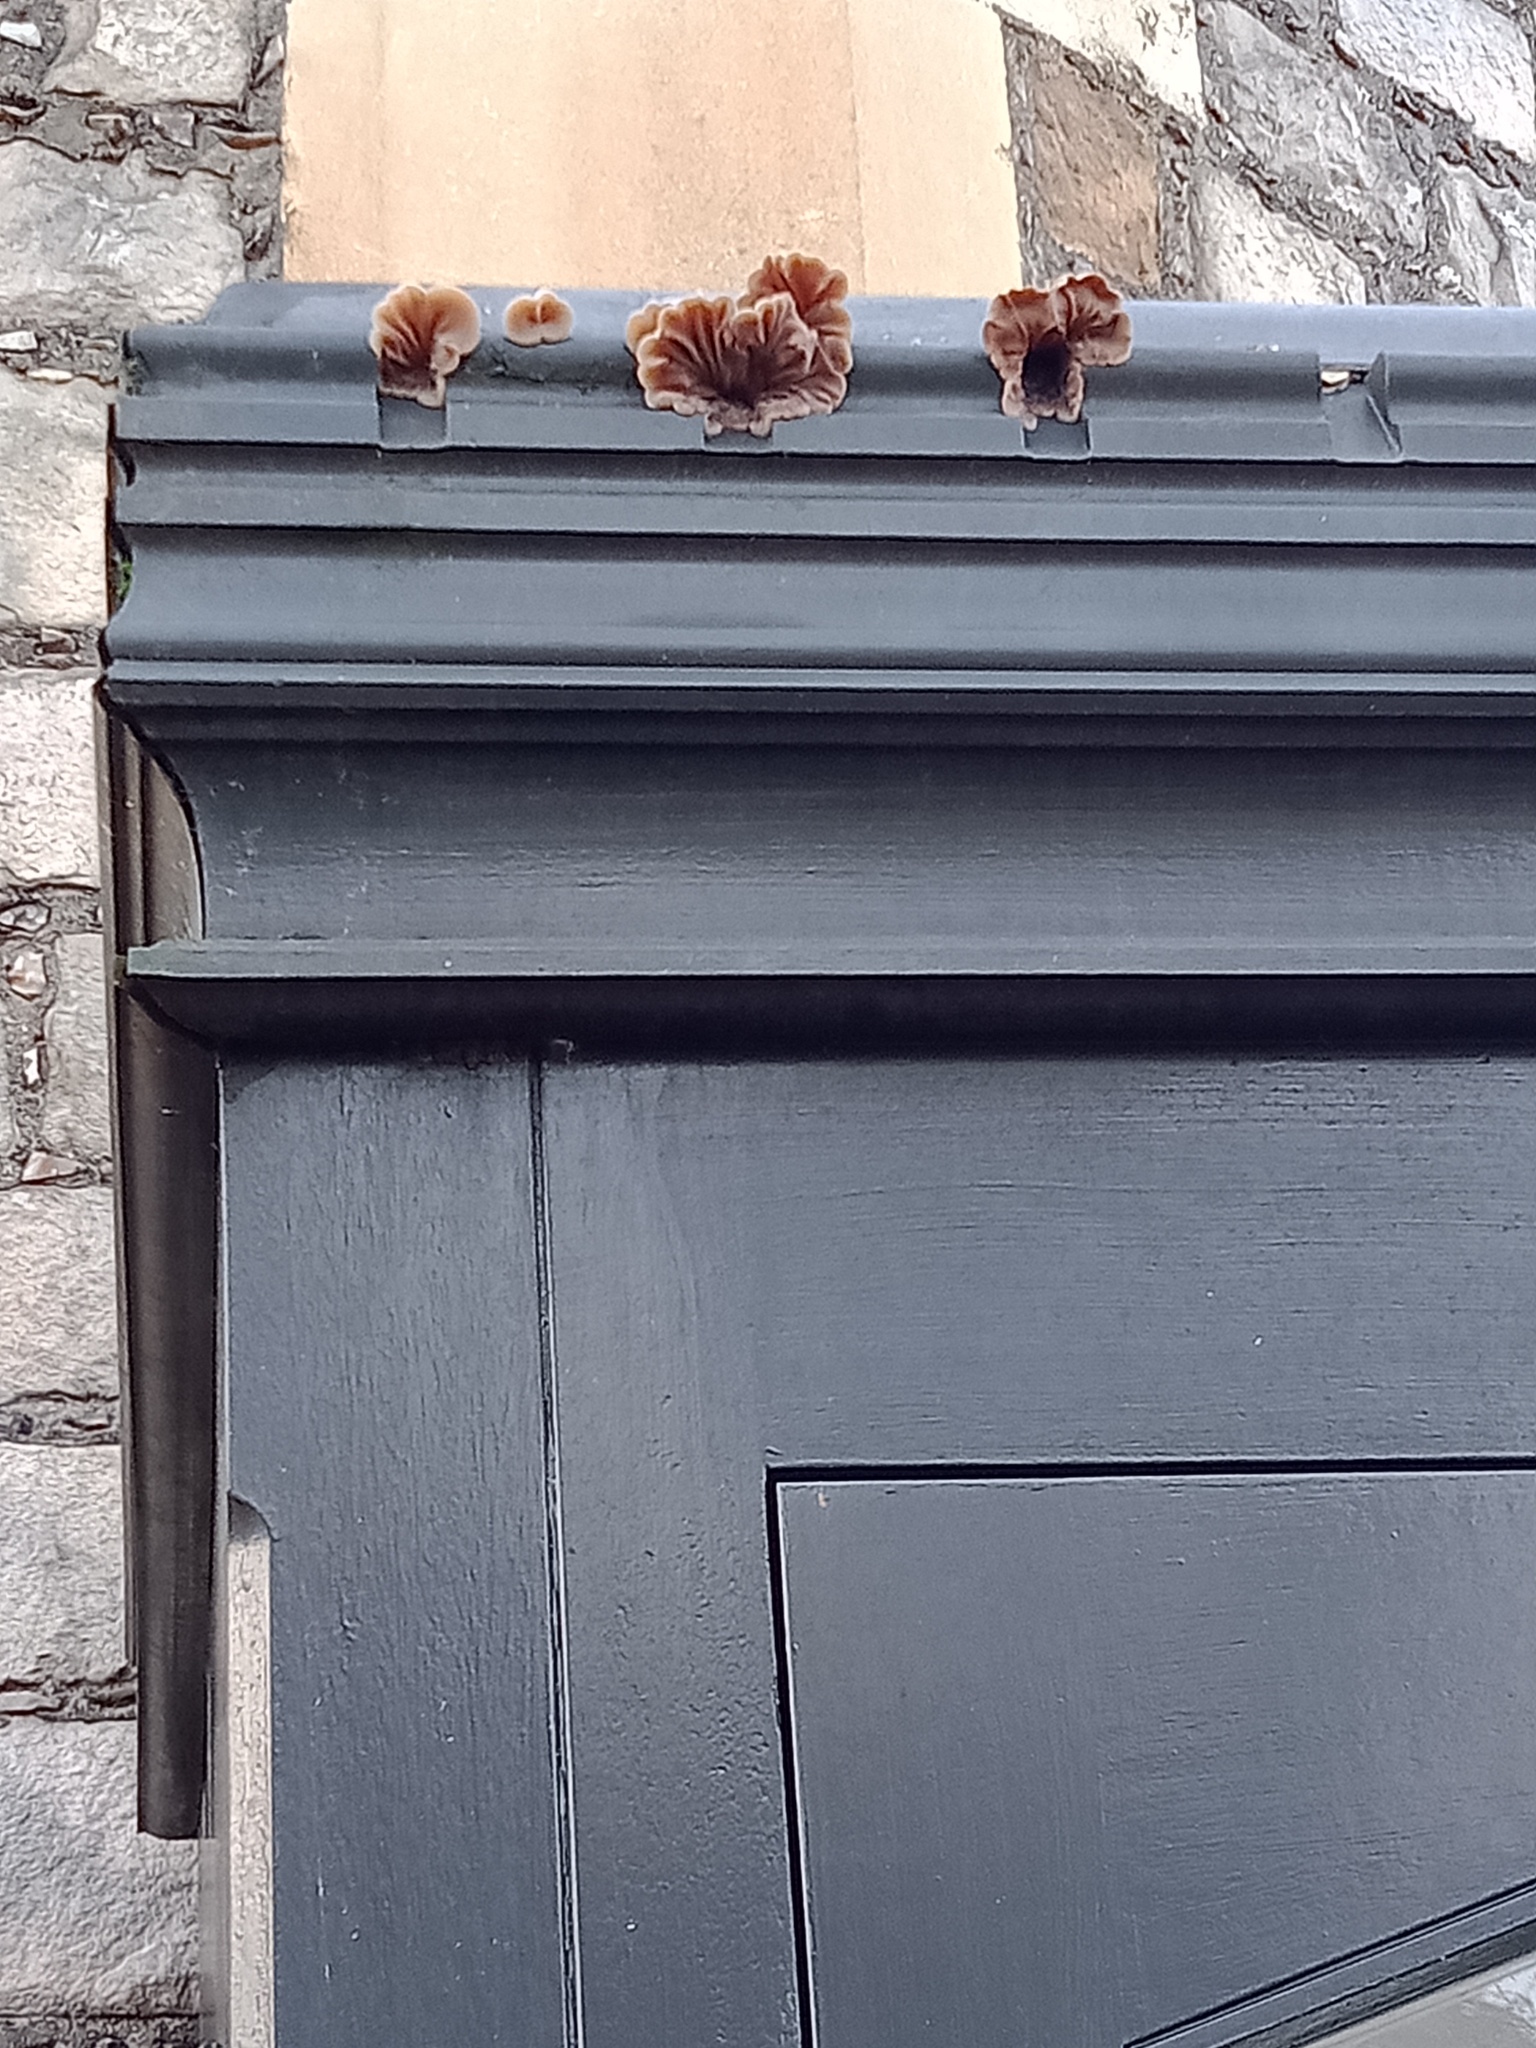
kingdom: Fungi
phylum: Basidiomycota
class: Agaricomycetes
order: Auriculariales
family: Auriculariaceae
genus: Auricularia
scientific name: Auricularia mesenterica
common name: Tripe fungus
